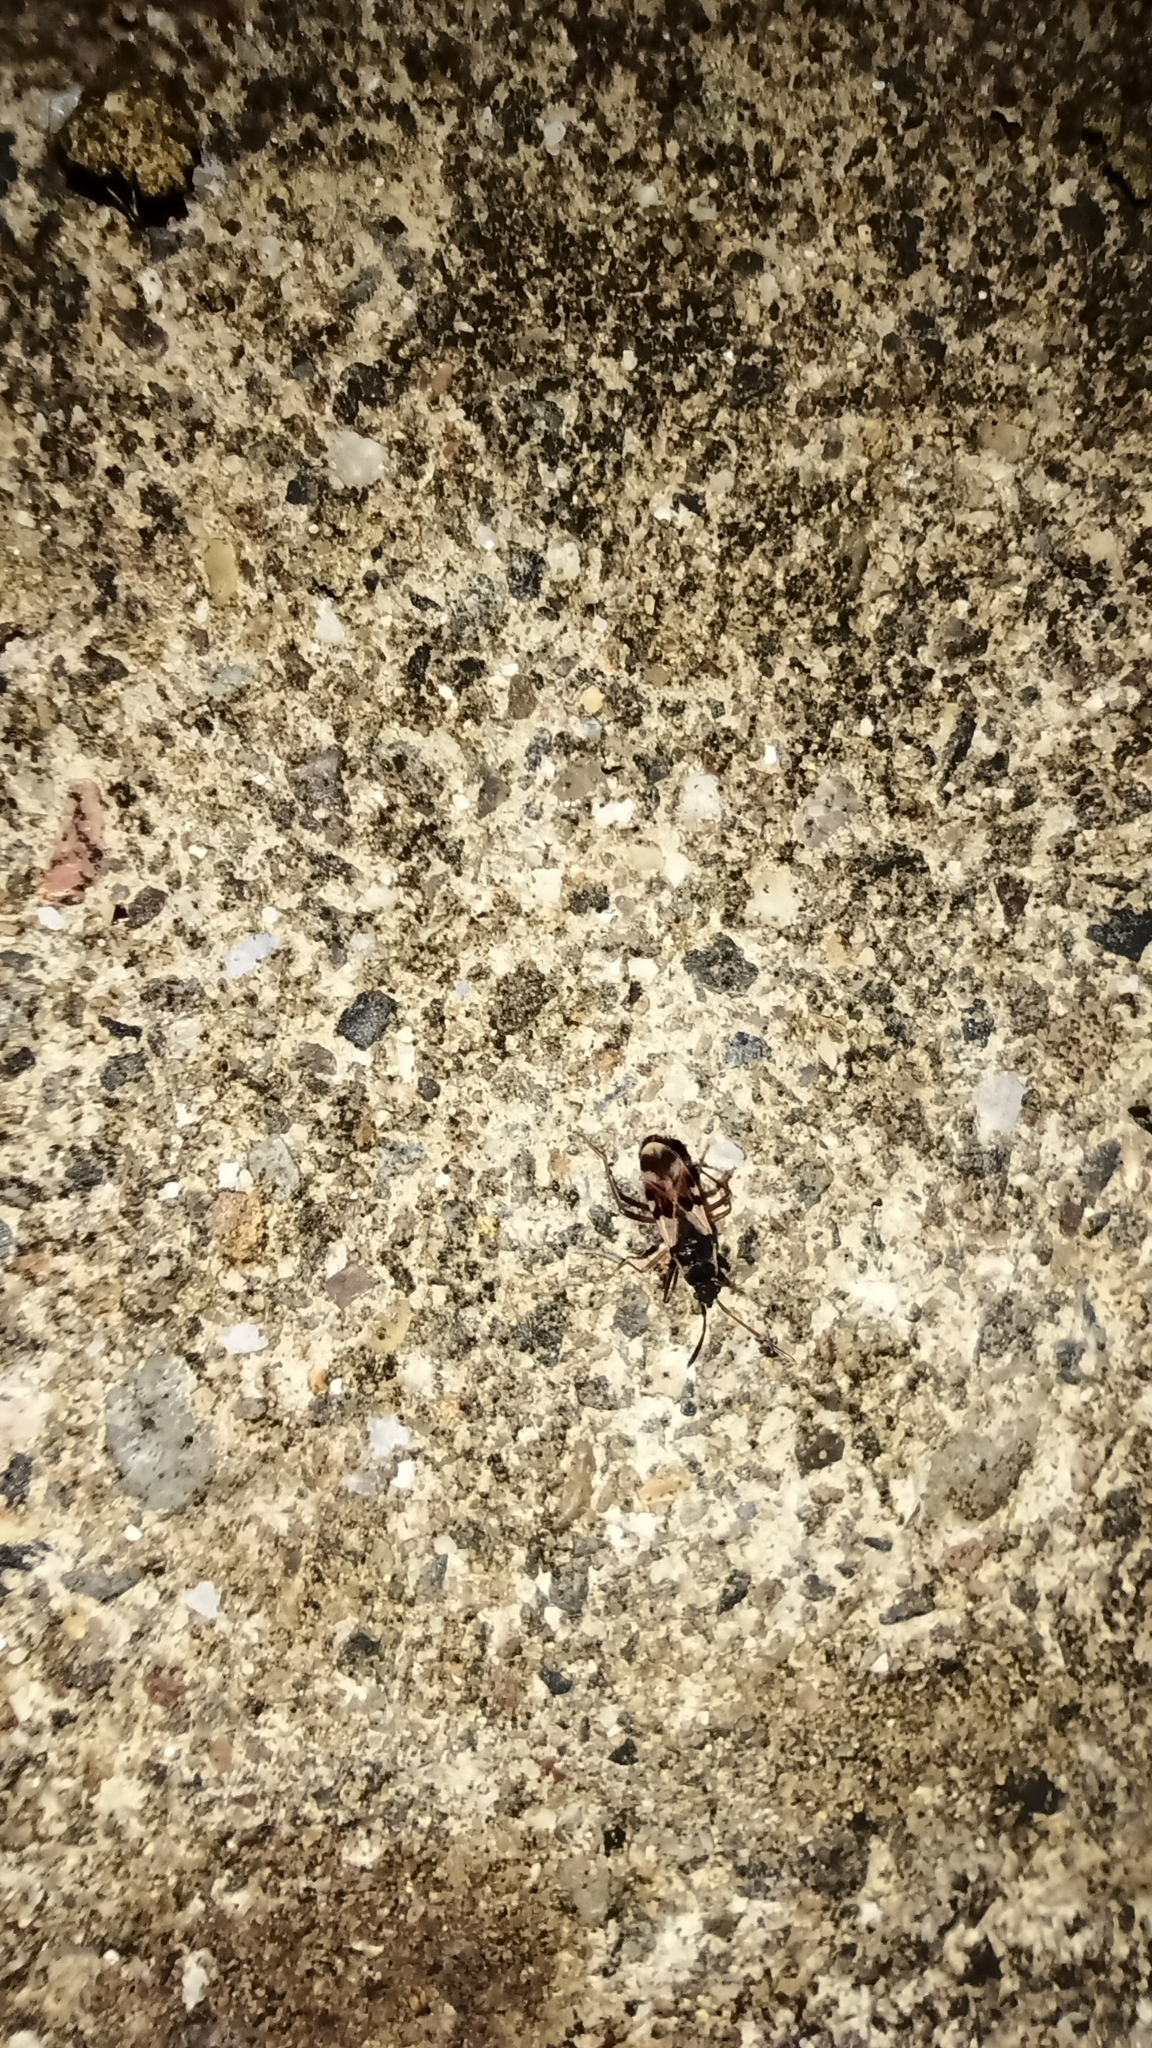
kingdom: Animalia
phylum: Arthropoda
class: Insecta
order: Hemiptera
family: Rhyparochromidae
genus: Paradieuches
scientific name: Paradieuches dissimilis
